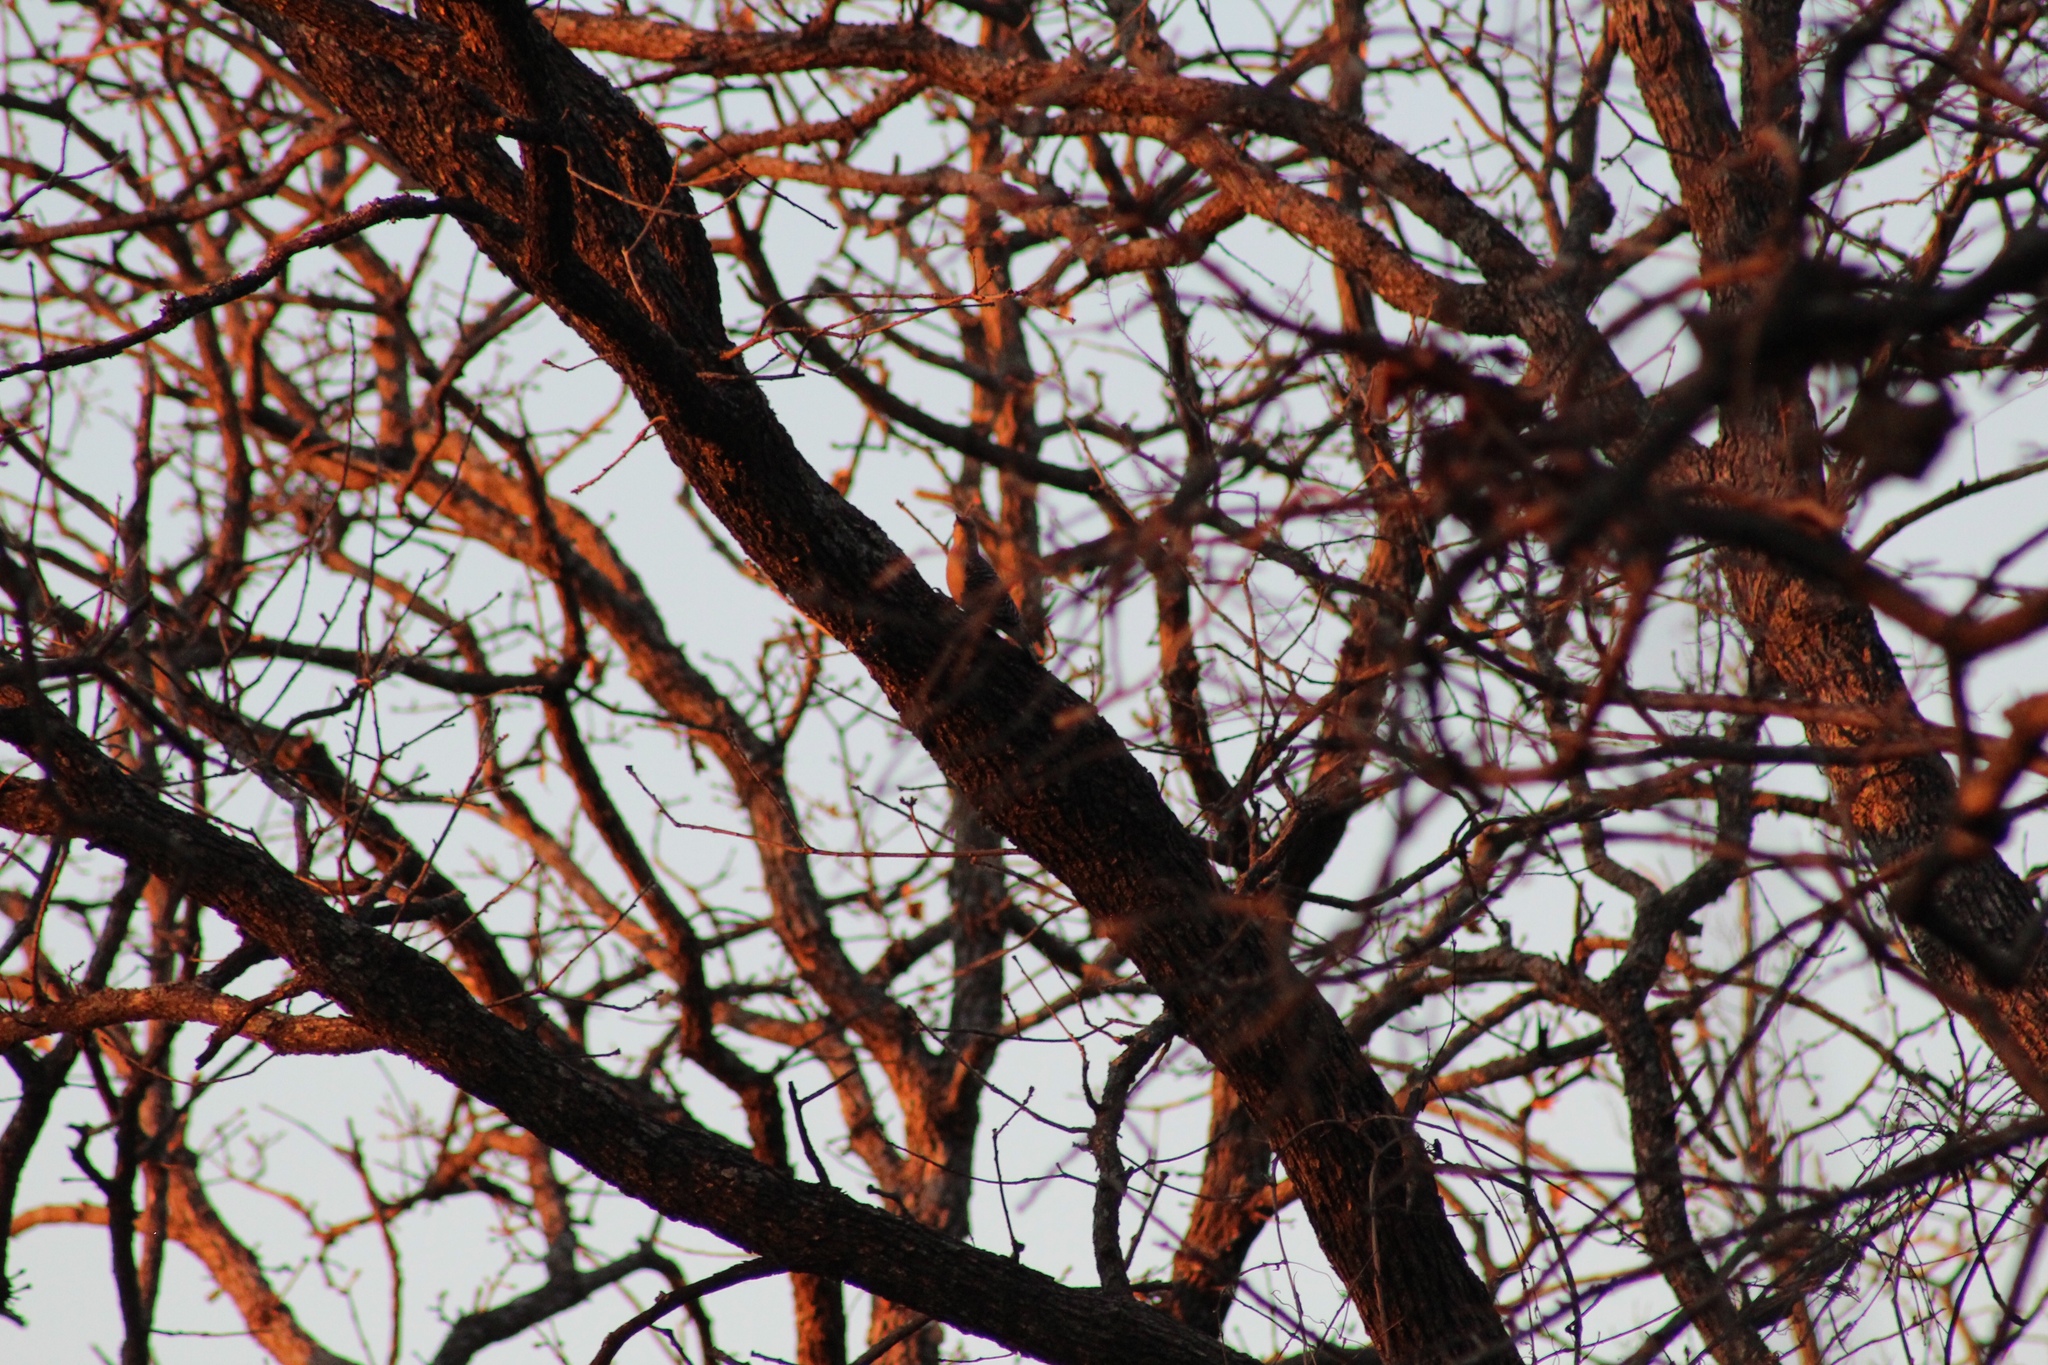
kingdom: Animalia
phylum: Chordata
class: Aves
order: Piciformes
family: Picidae
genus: Melanerpes
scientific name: Melanerpes carolinus
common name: Red-bellied woodpecker
